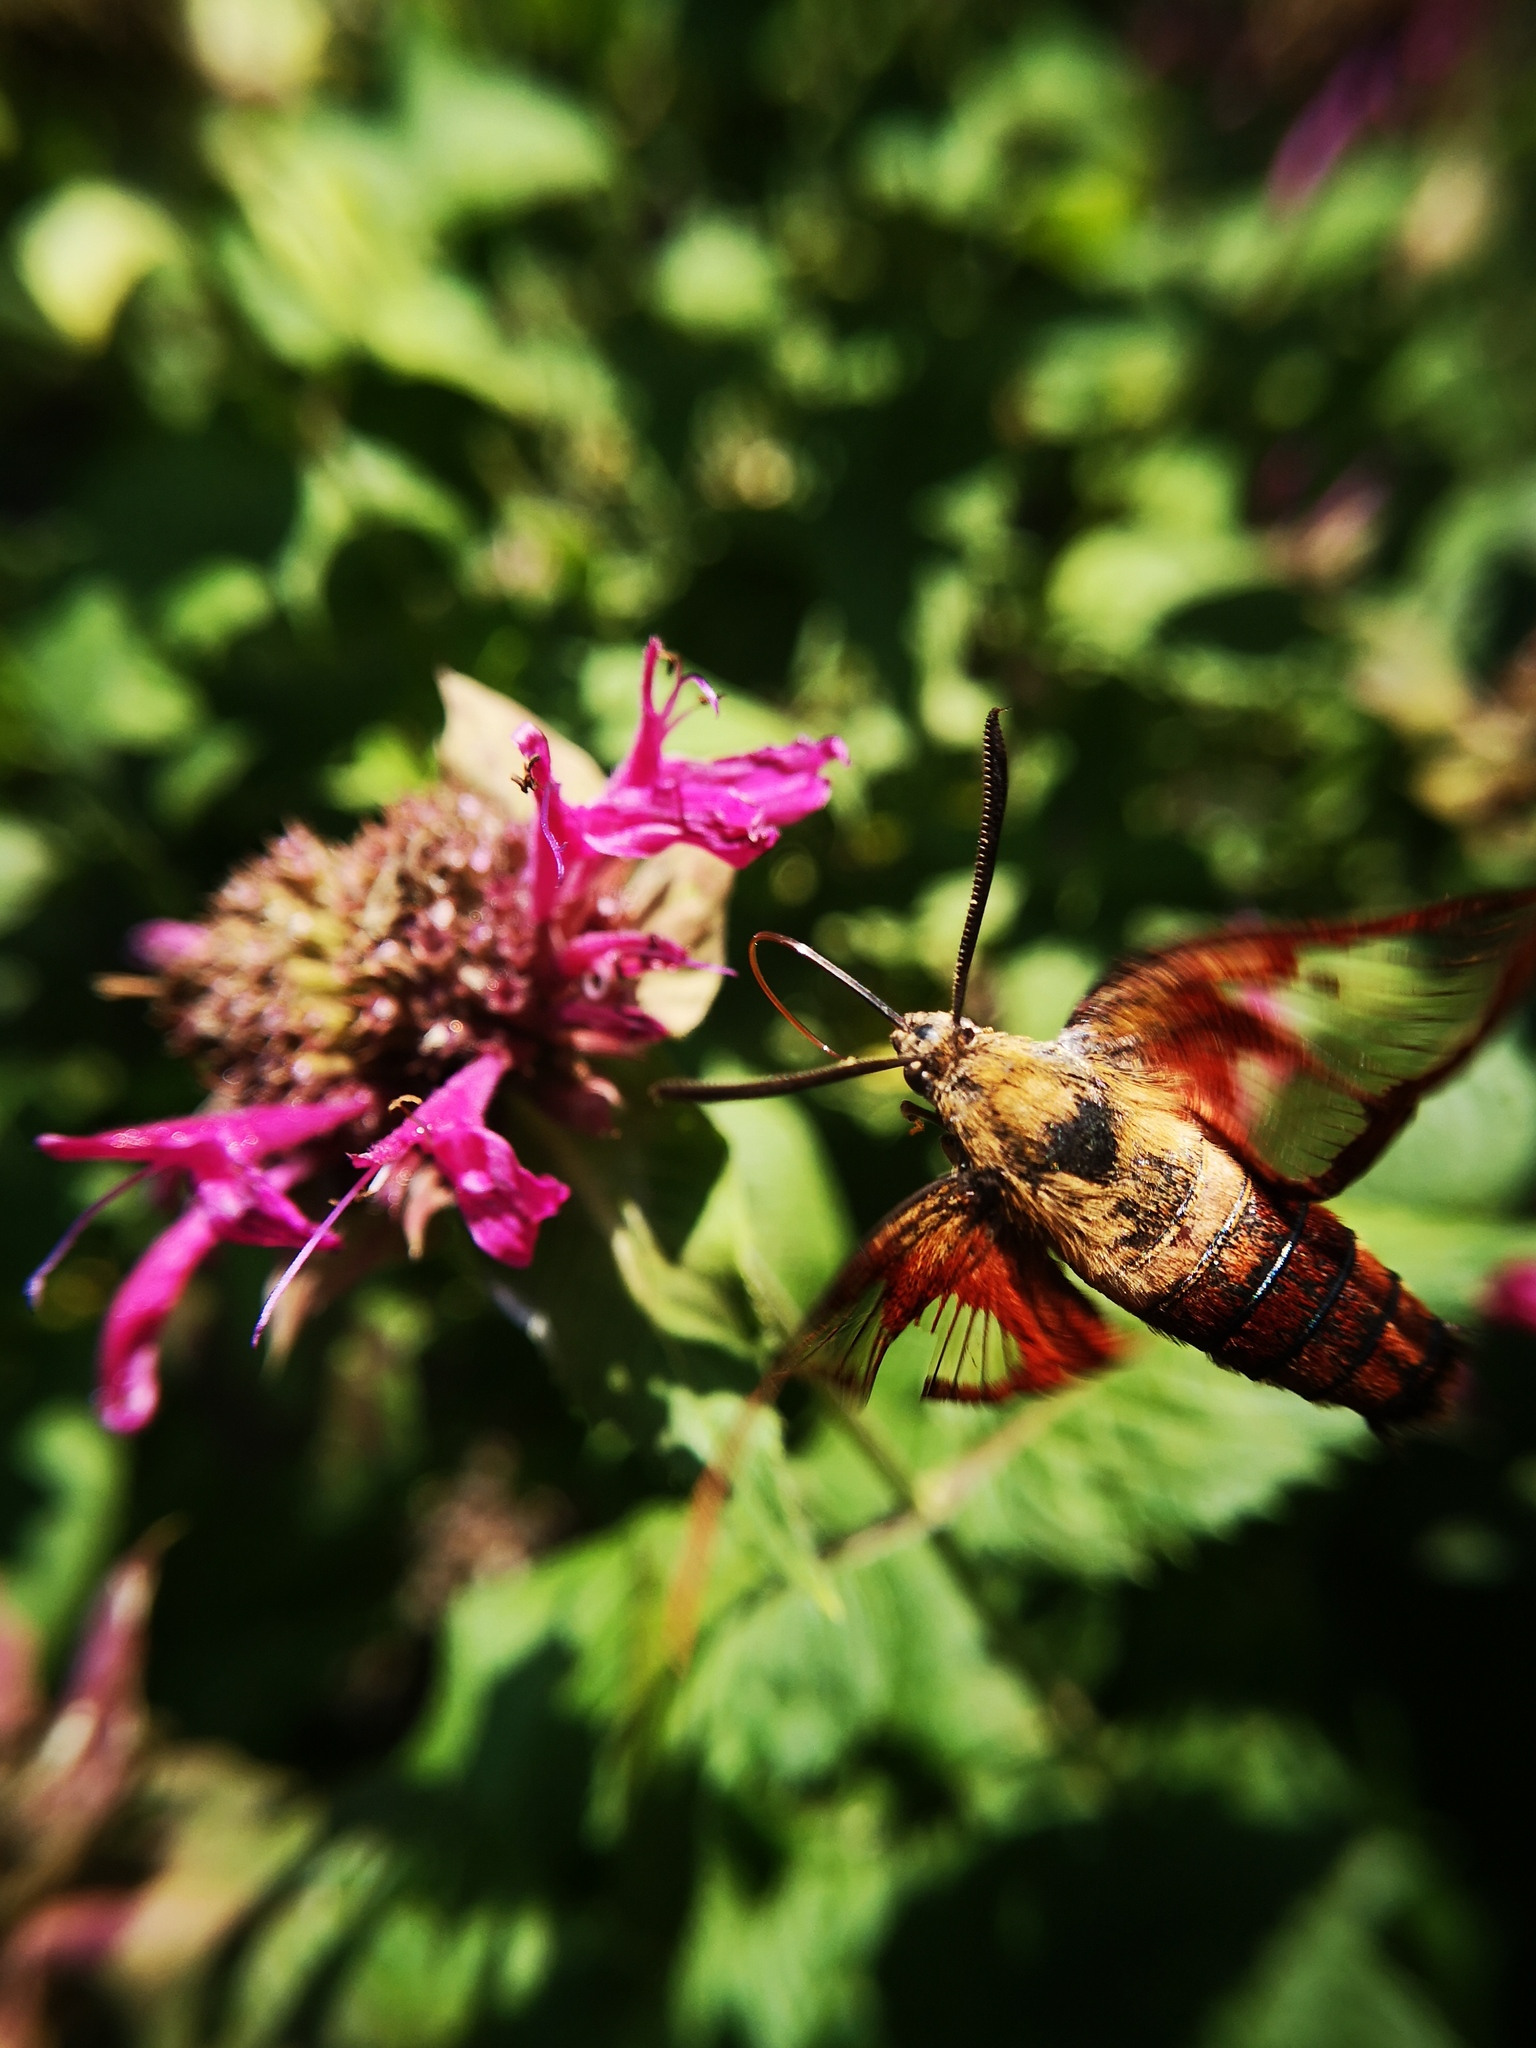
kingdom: Animalia
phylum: Arthropoda
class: Insecta
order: Lepidoptera
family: Sphingidae
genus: Hemaris
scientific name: Hemaris thysbe
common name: Common clear-wing
